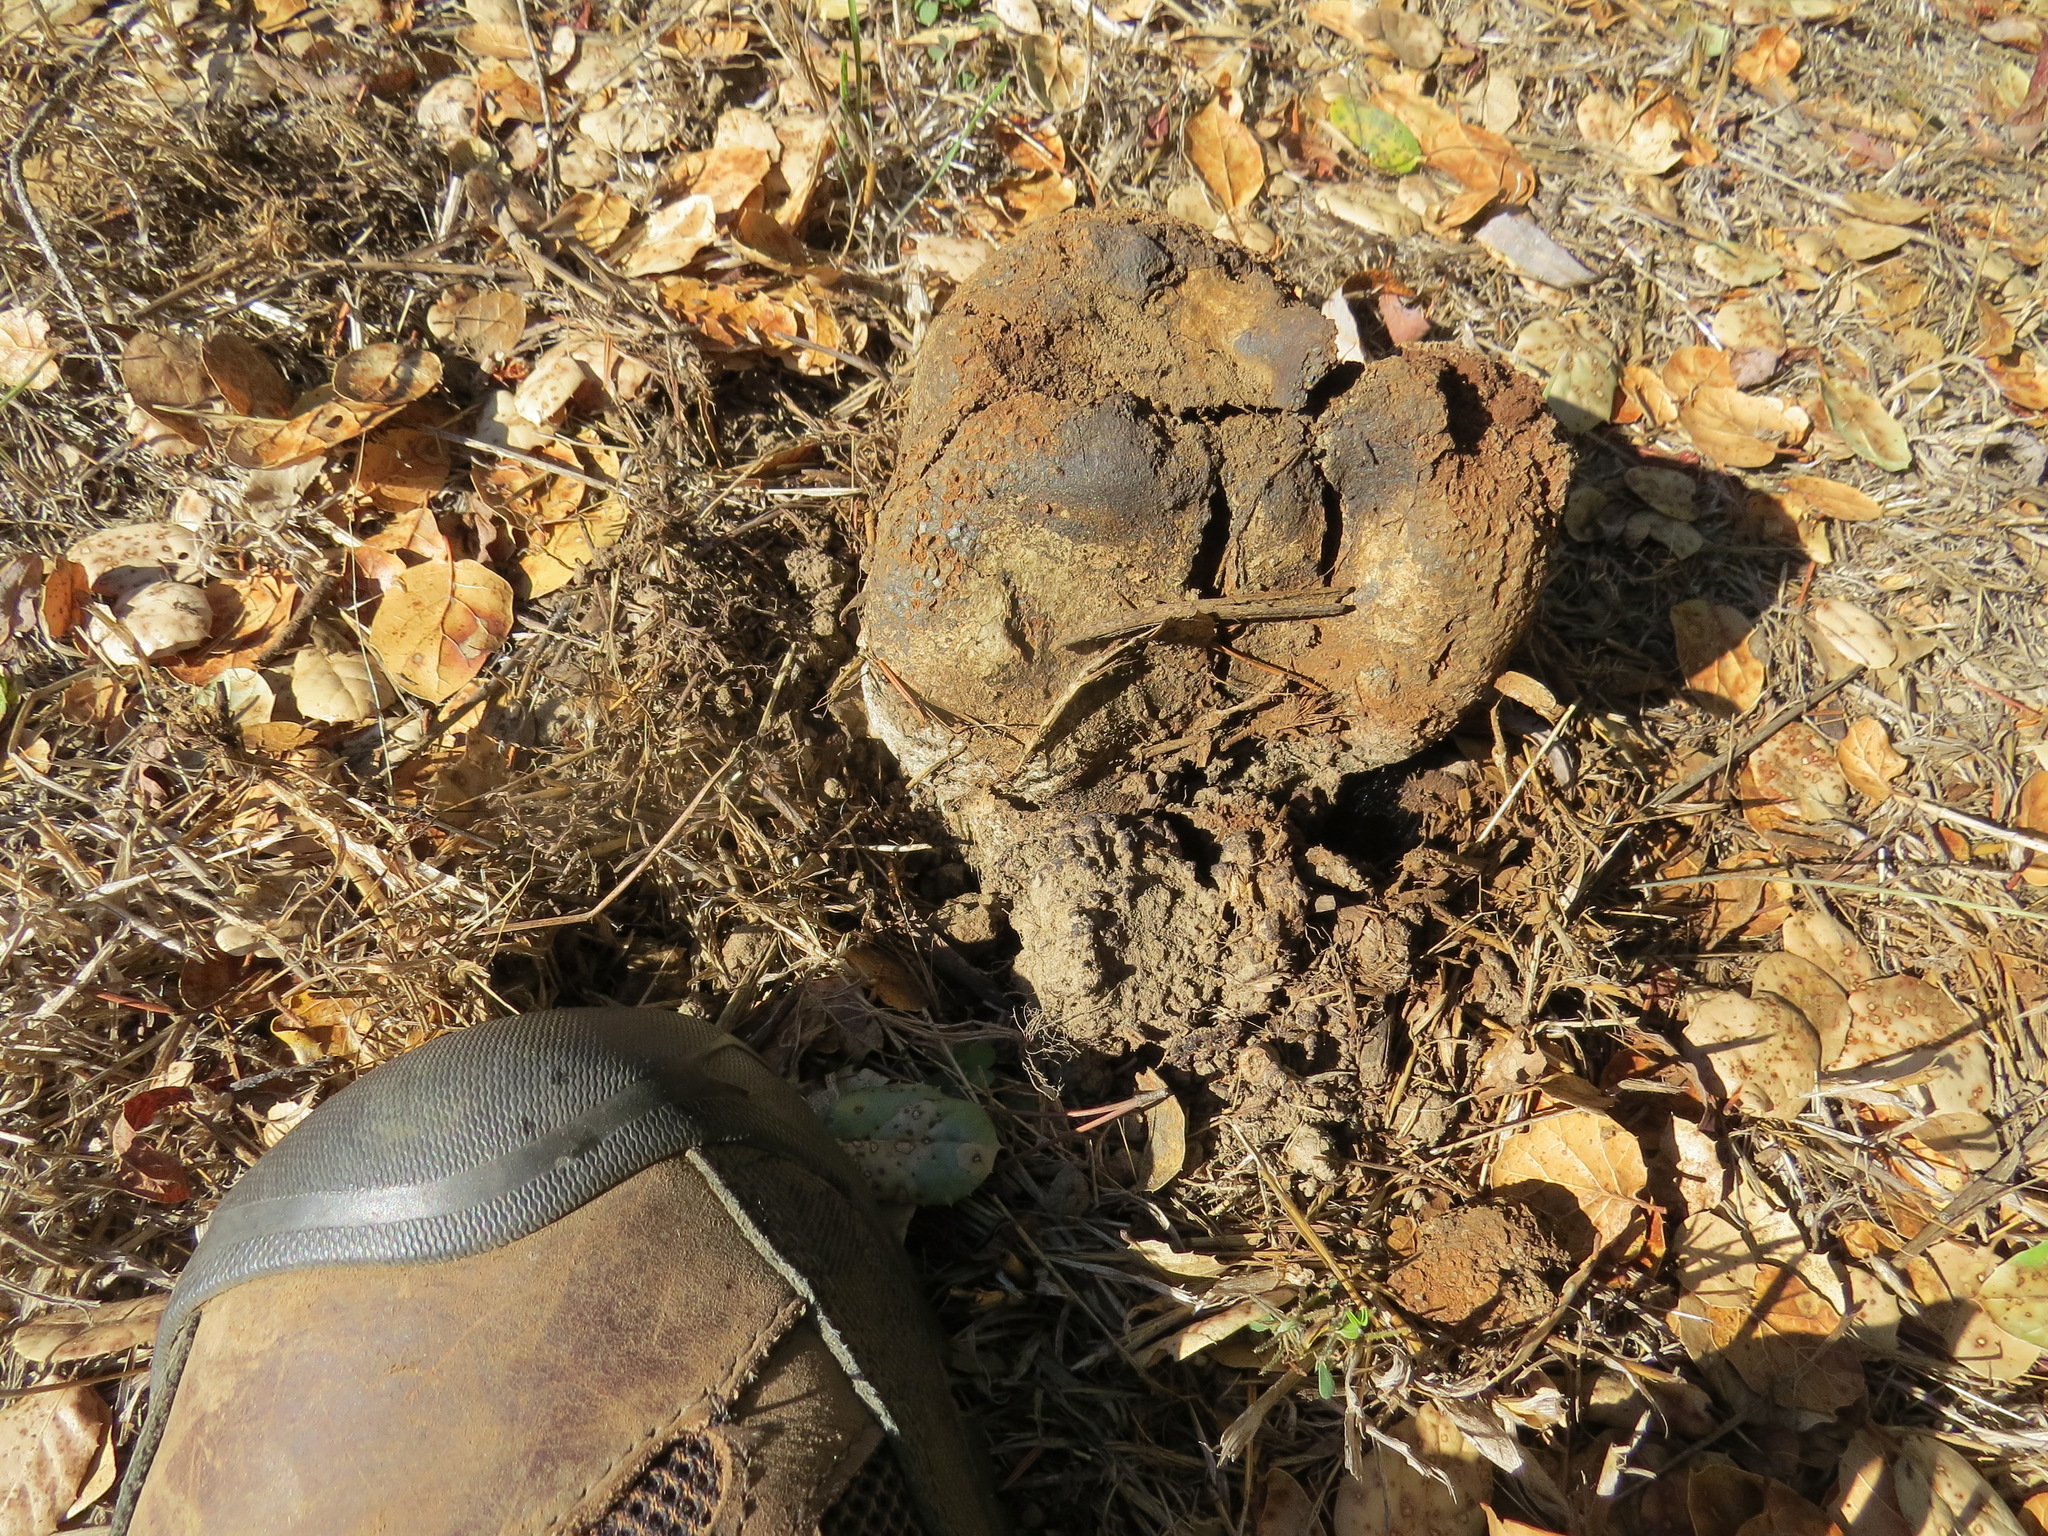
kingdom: Fungi
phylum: Basidiomycota
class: Agaricomycetes
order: Boletales
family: Sclerodermataceae
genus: Pisolithus
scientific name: Pisolithus tinctorius
